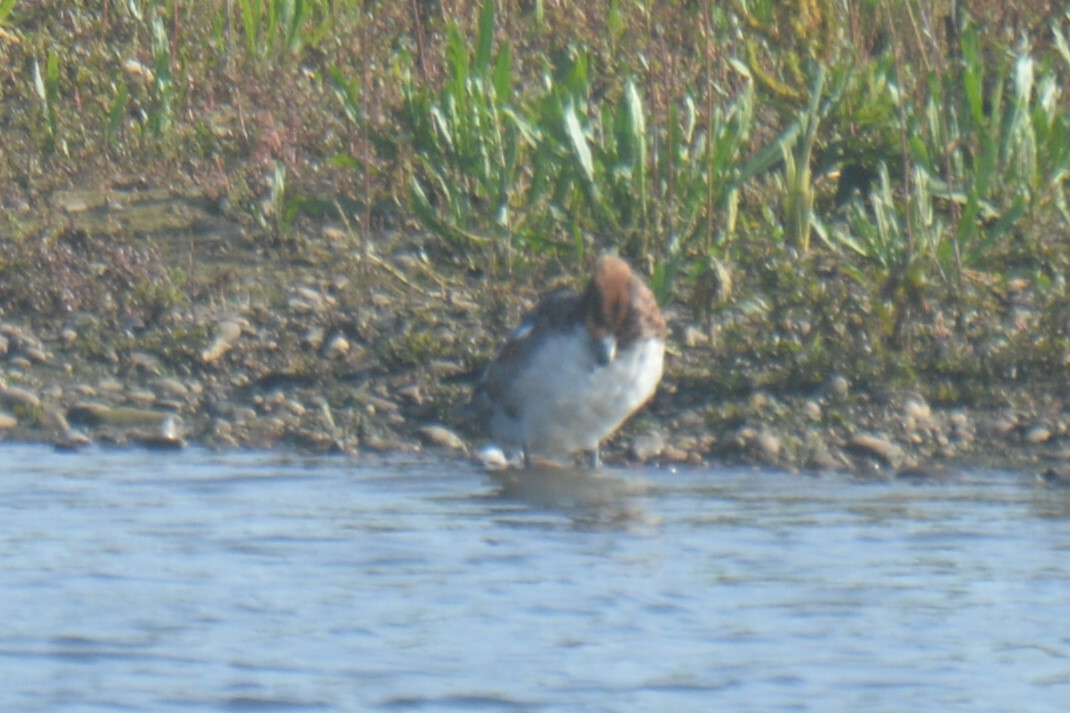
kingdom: Animalia
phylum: Chordata
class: Aves
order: Anseriformes
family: Anatidae
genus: Mareca
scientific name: Mareca penelope
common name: Eurasian wigeon
